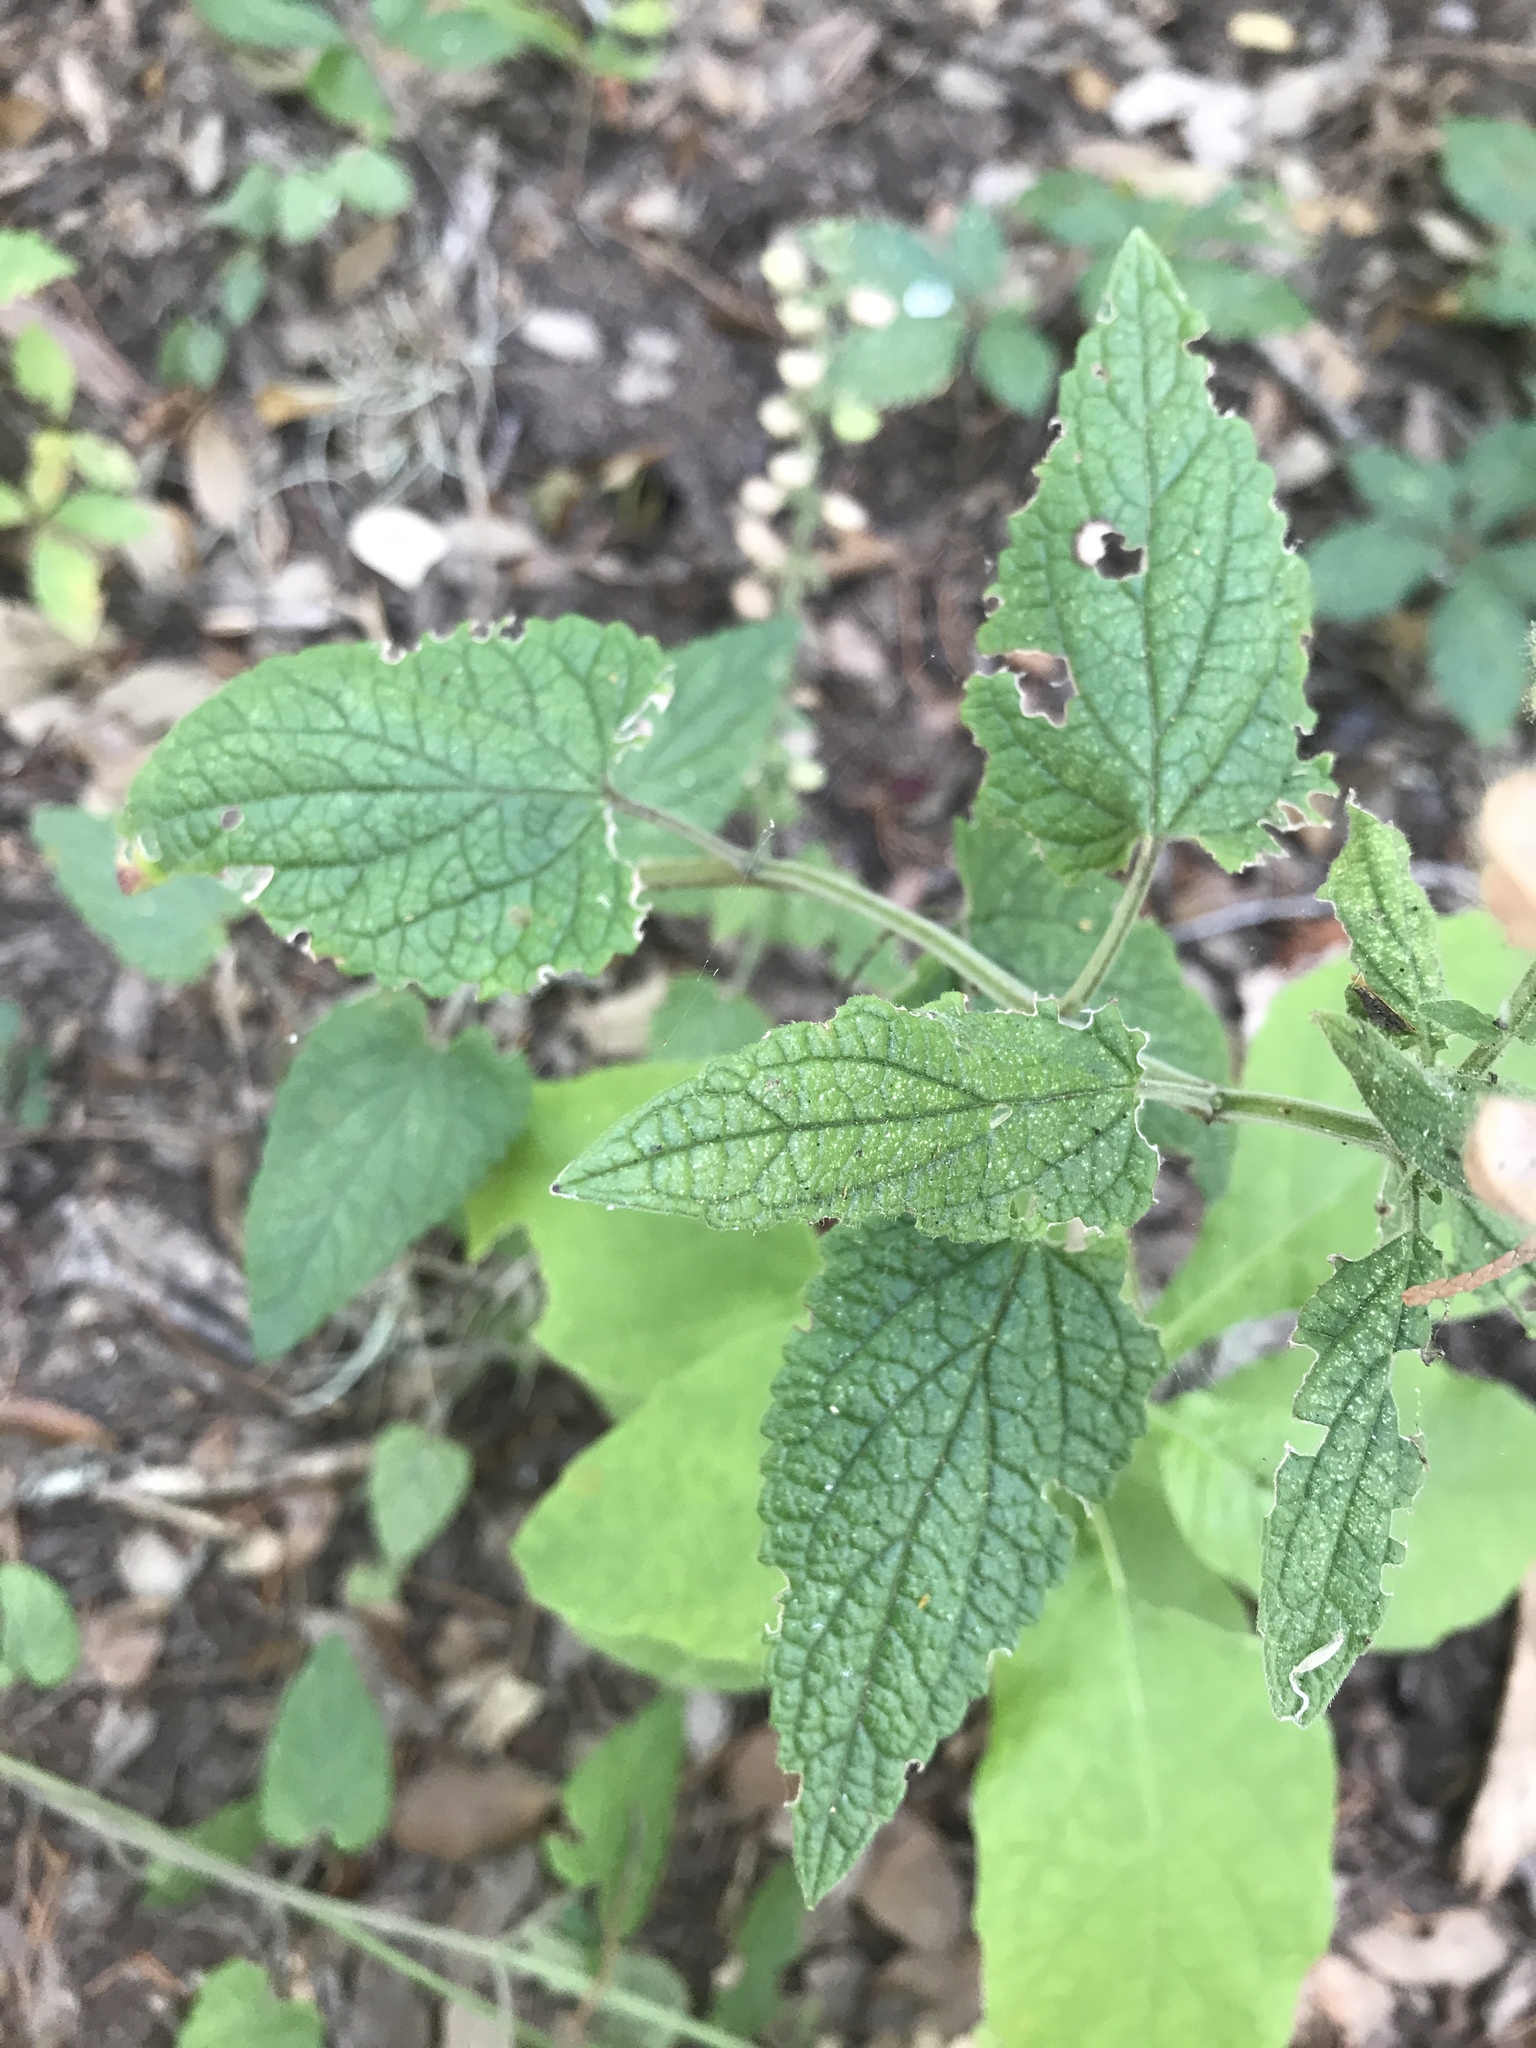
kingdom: Plantae
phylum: Tracheophyta
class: Magnoliopsida
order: Lamiales
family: Lamiaceae
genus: Scutellaria
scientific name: Scutellaria ovata
